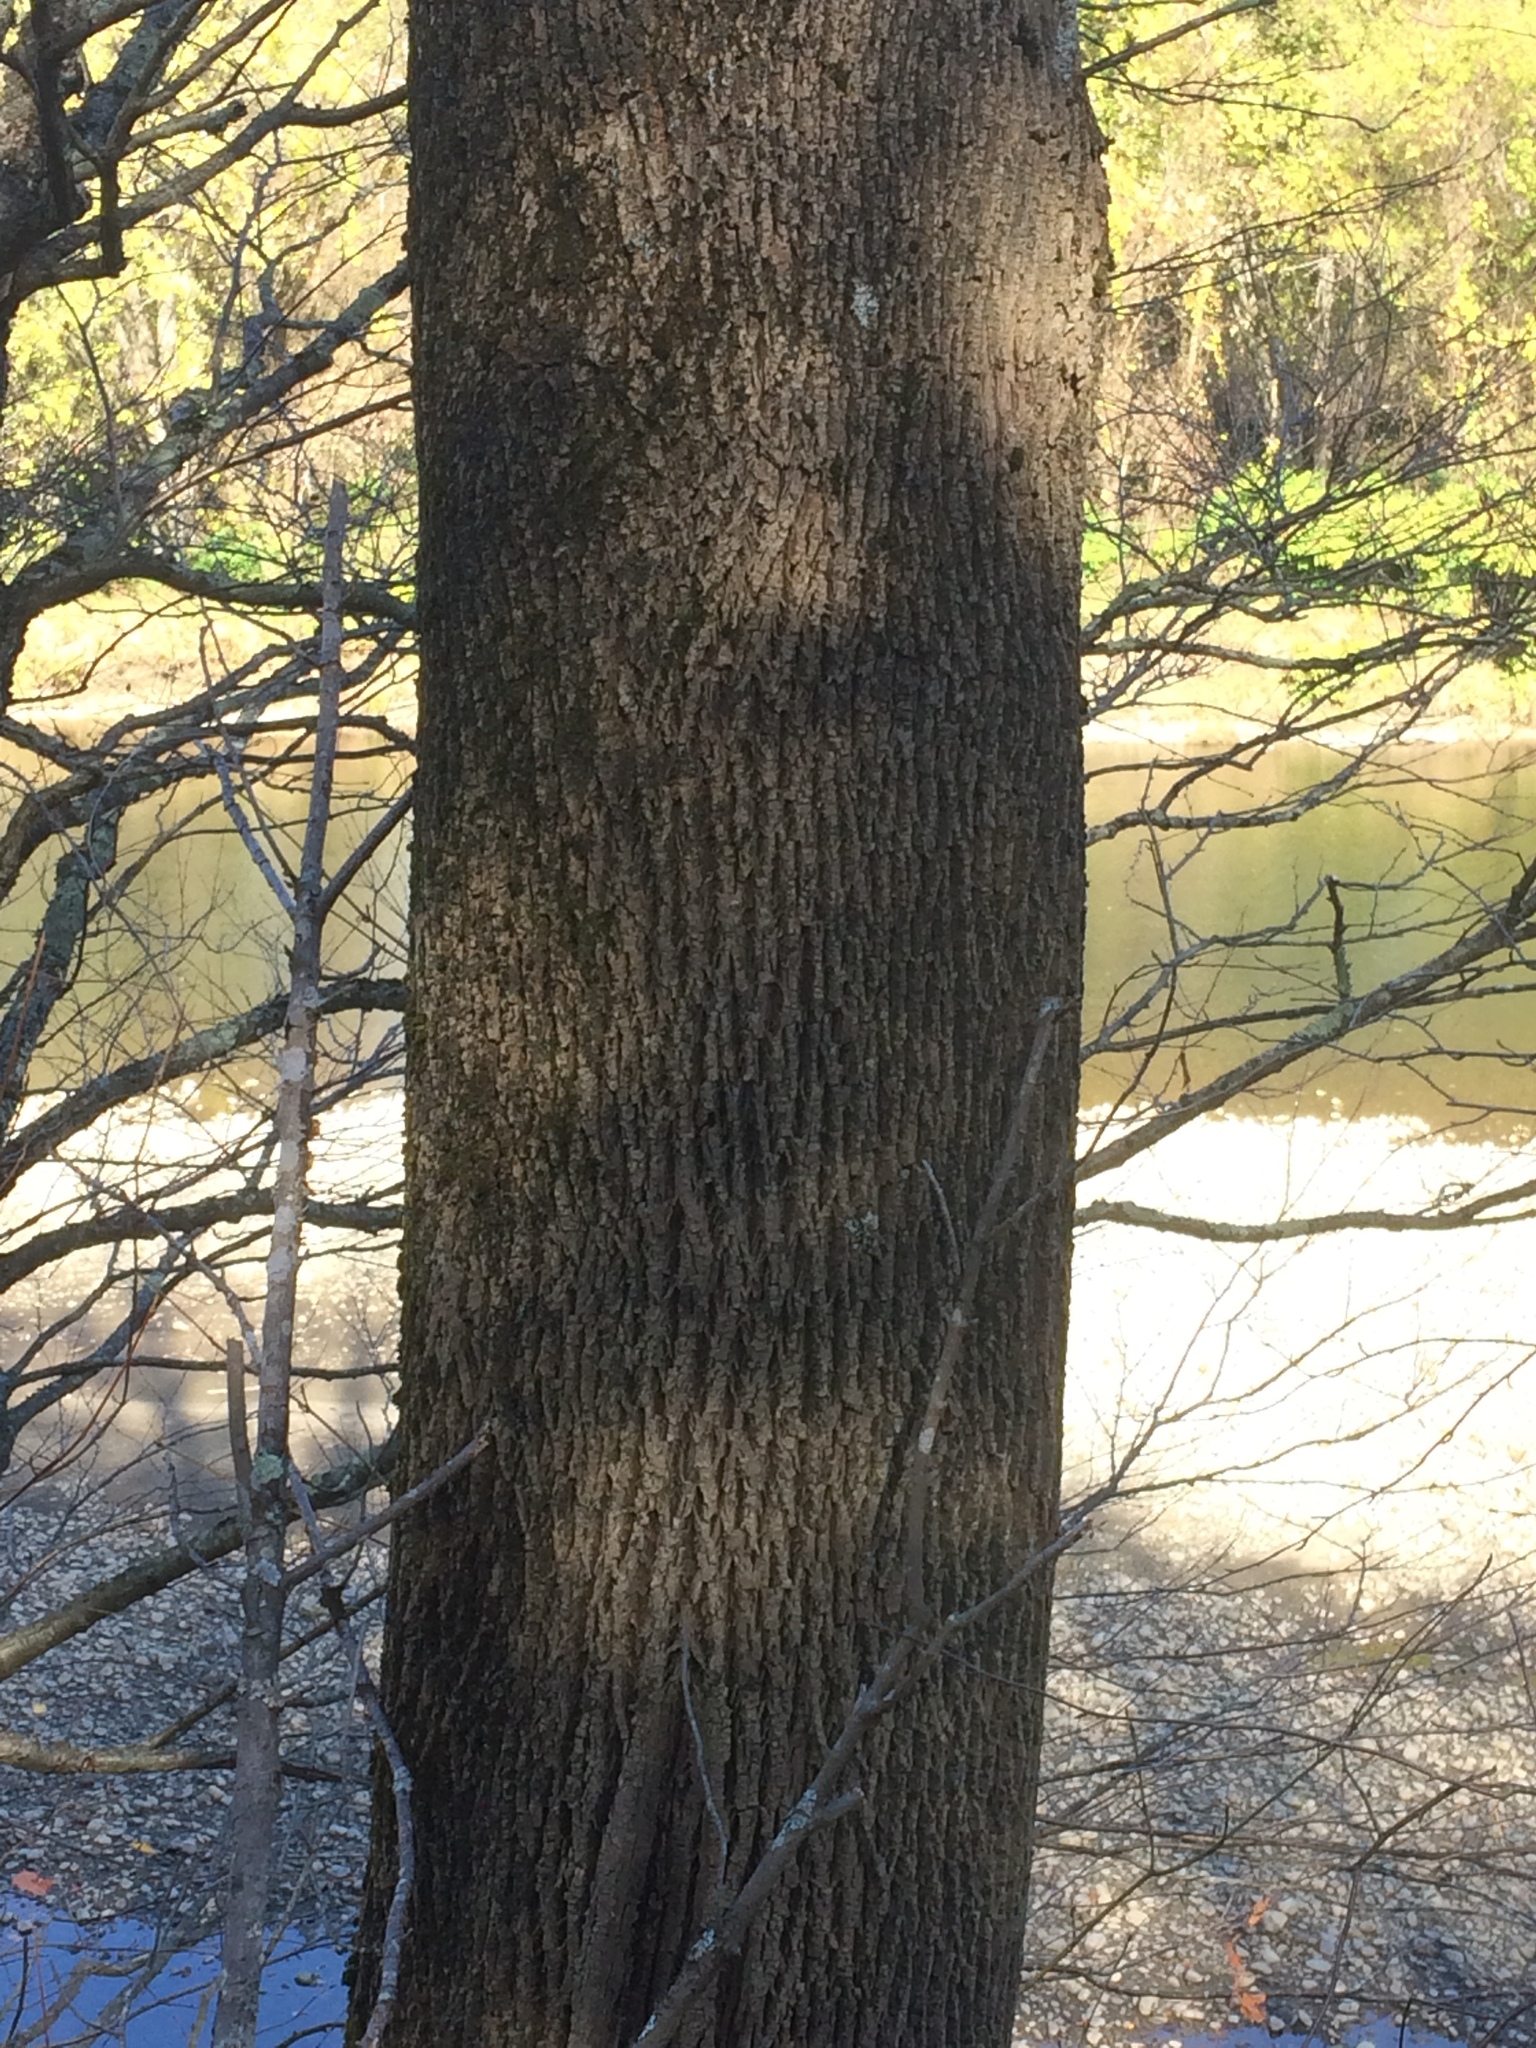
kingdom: Plantae
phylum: Tracheophyta
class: Magnoliopsida
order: Lamiales
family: Oleaceae
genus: Fraxinus
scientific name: Fraxinus americana
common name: White ash
